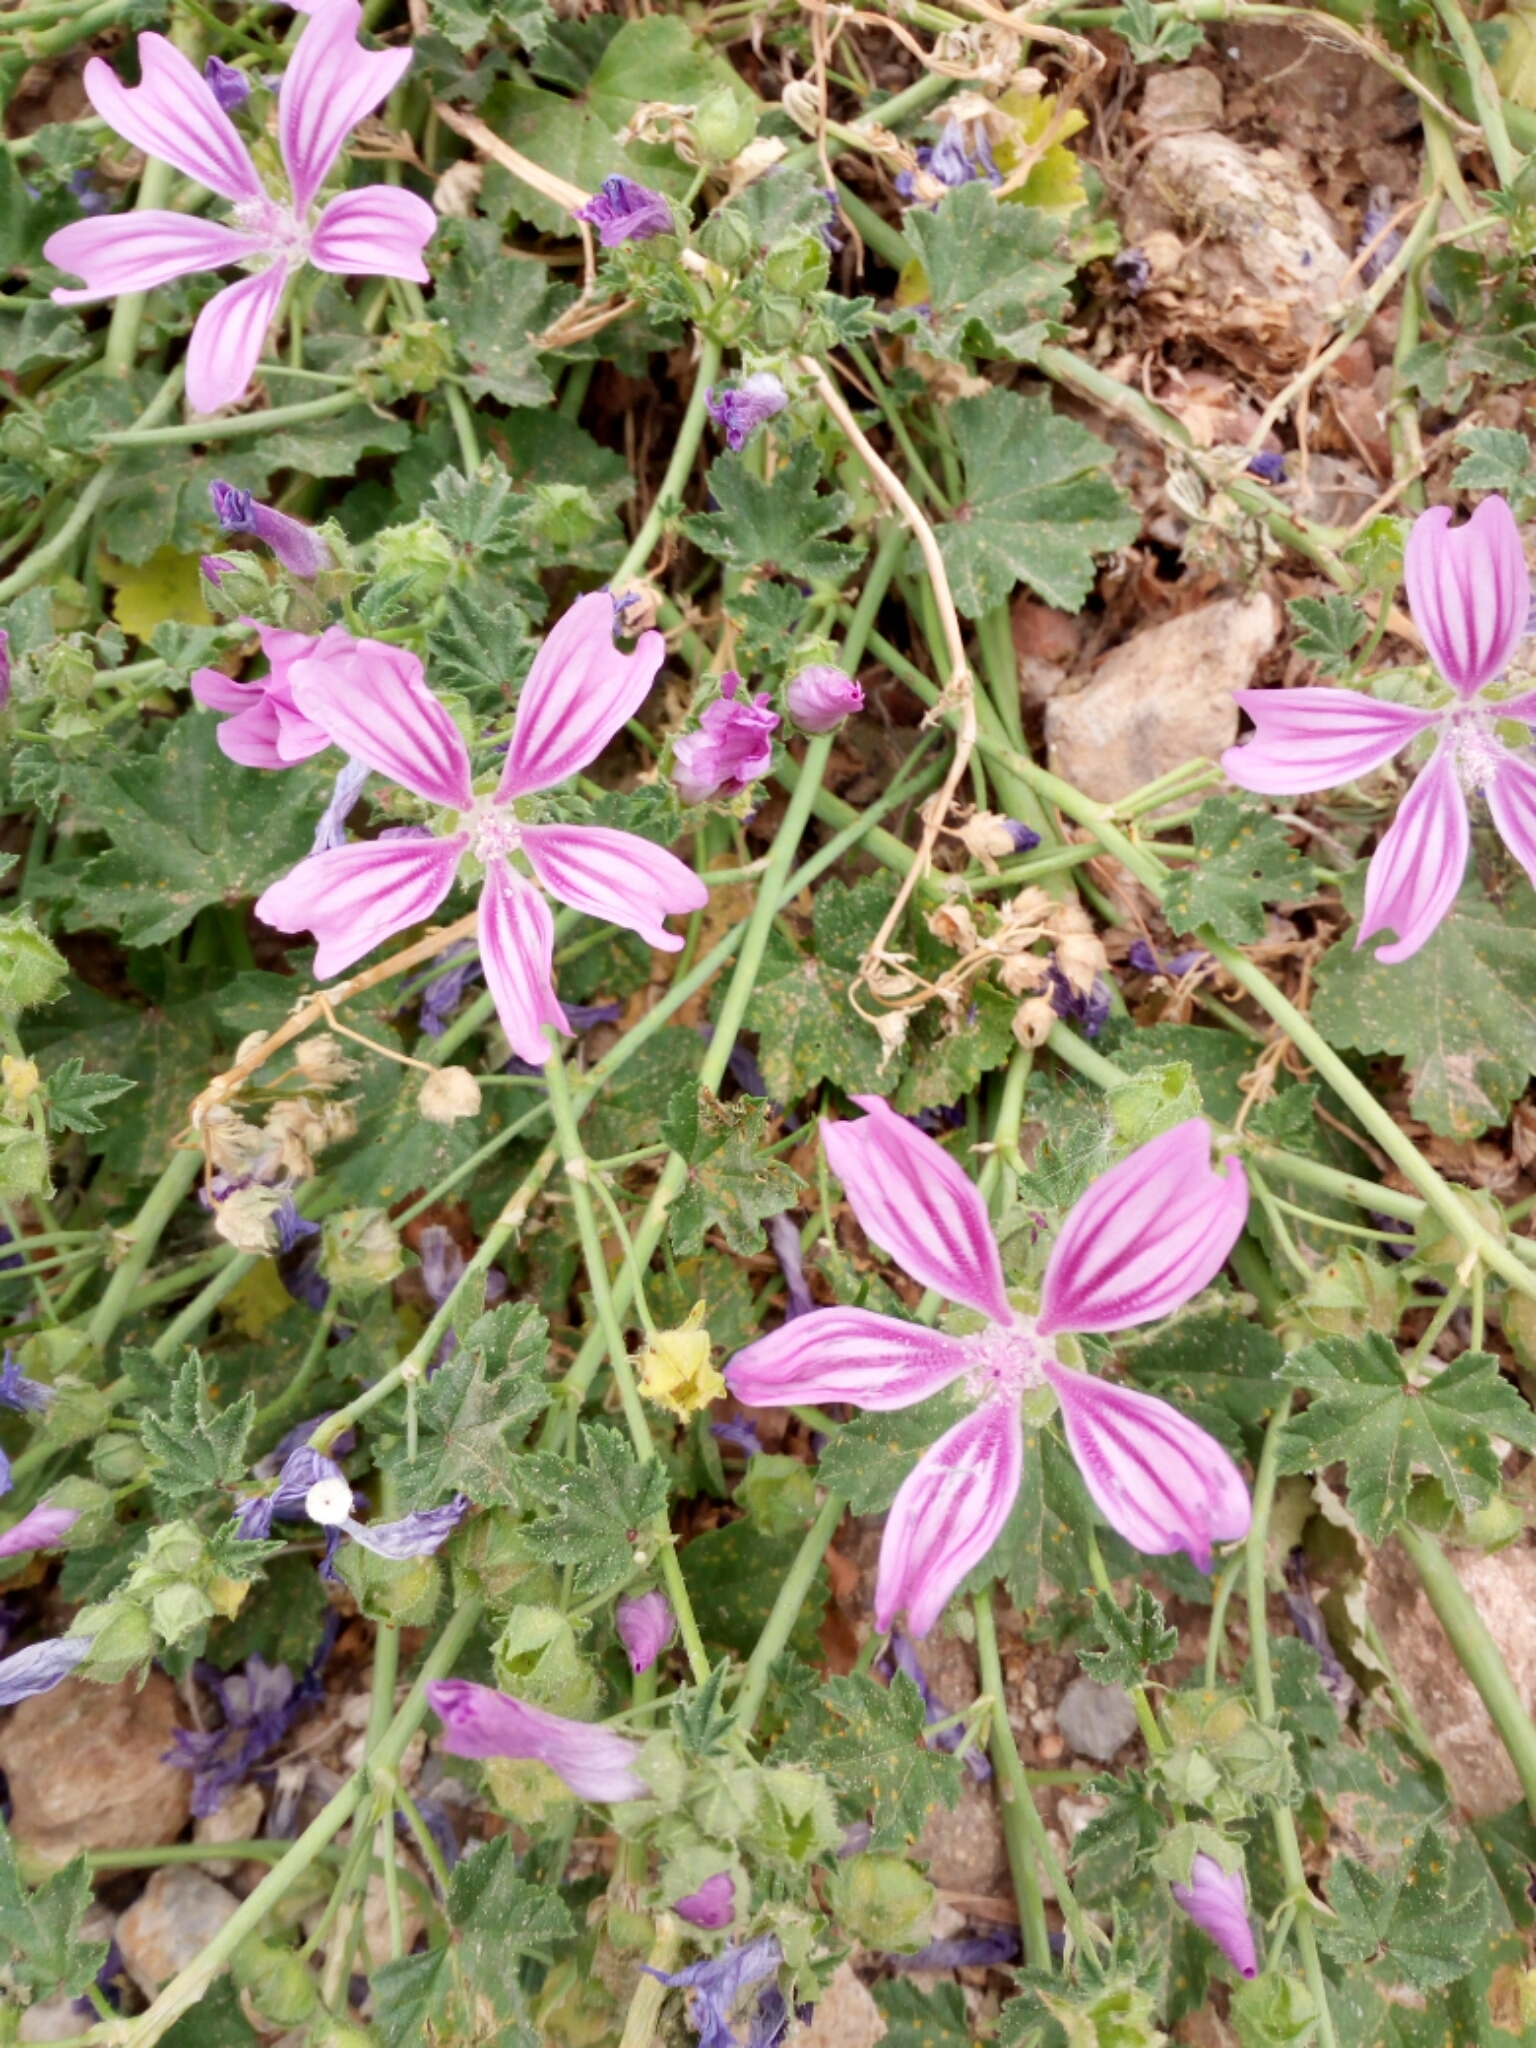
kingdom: Plantae
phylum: Tracheophyta
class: Magnoliopsida
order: Malvales
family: Malvaceae
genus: Malva
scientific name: Malva sylvestris
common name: Common mallow
